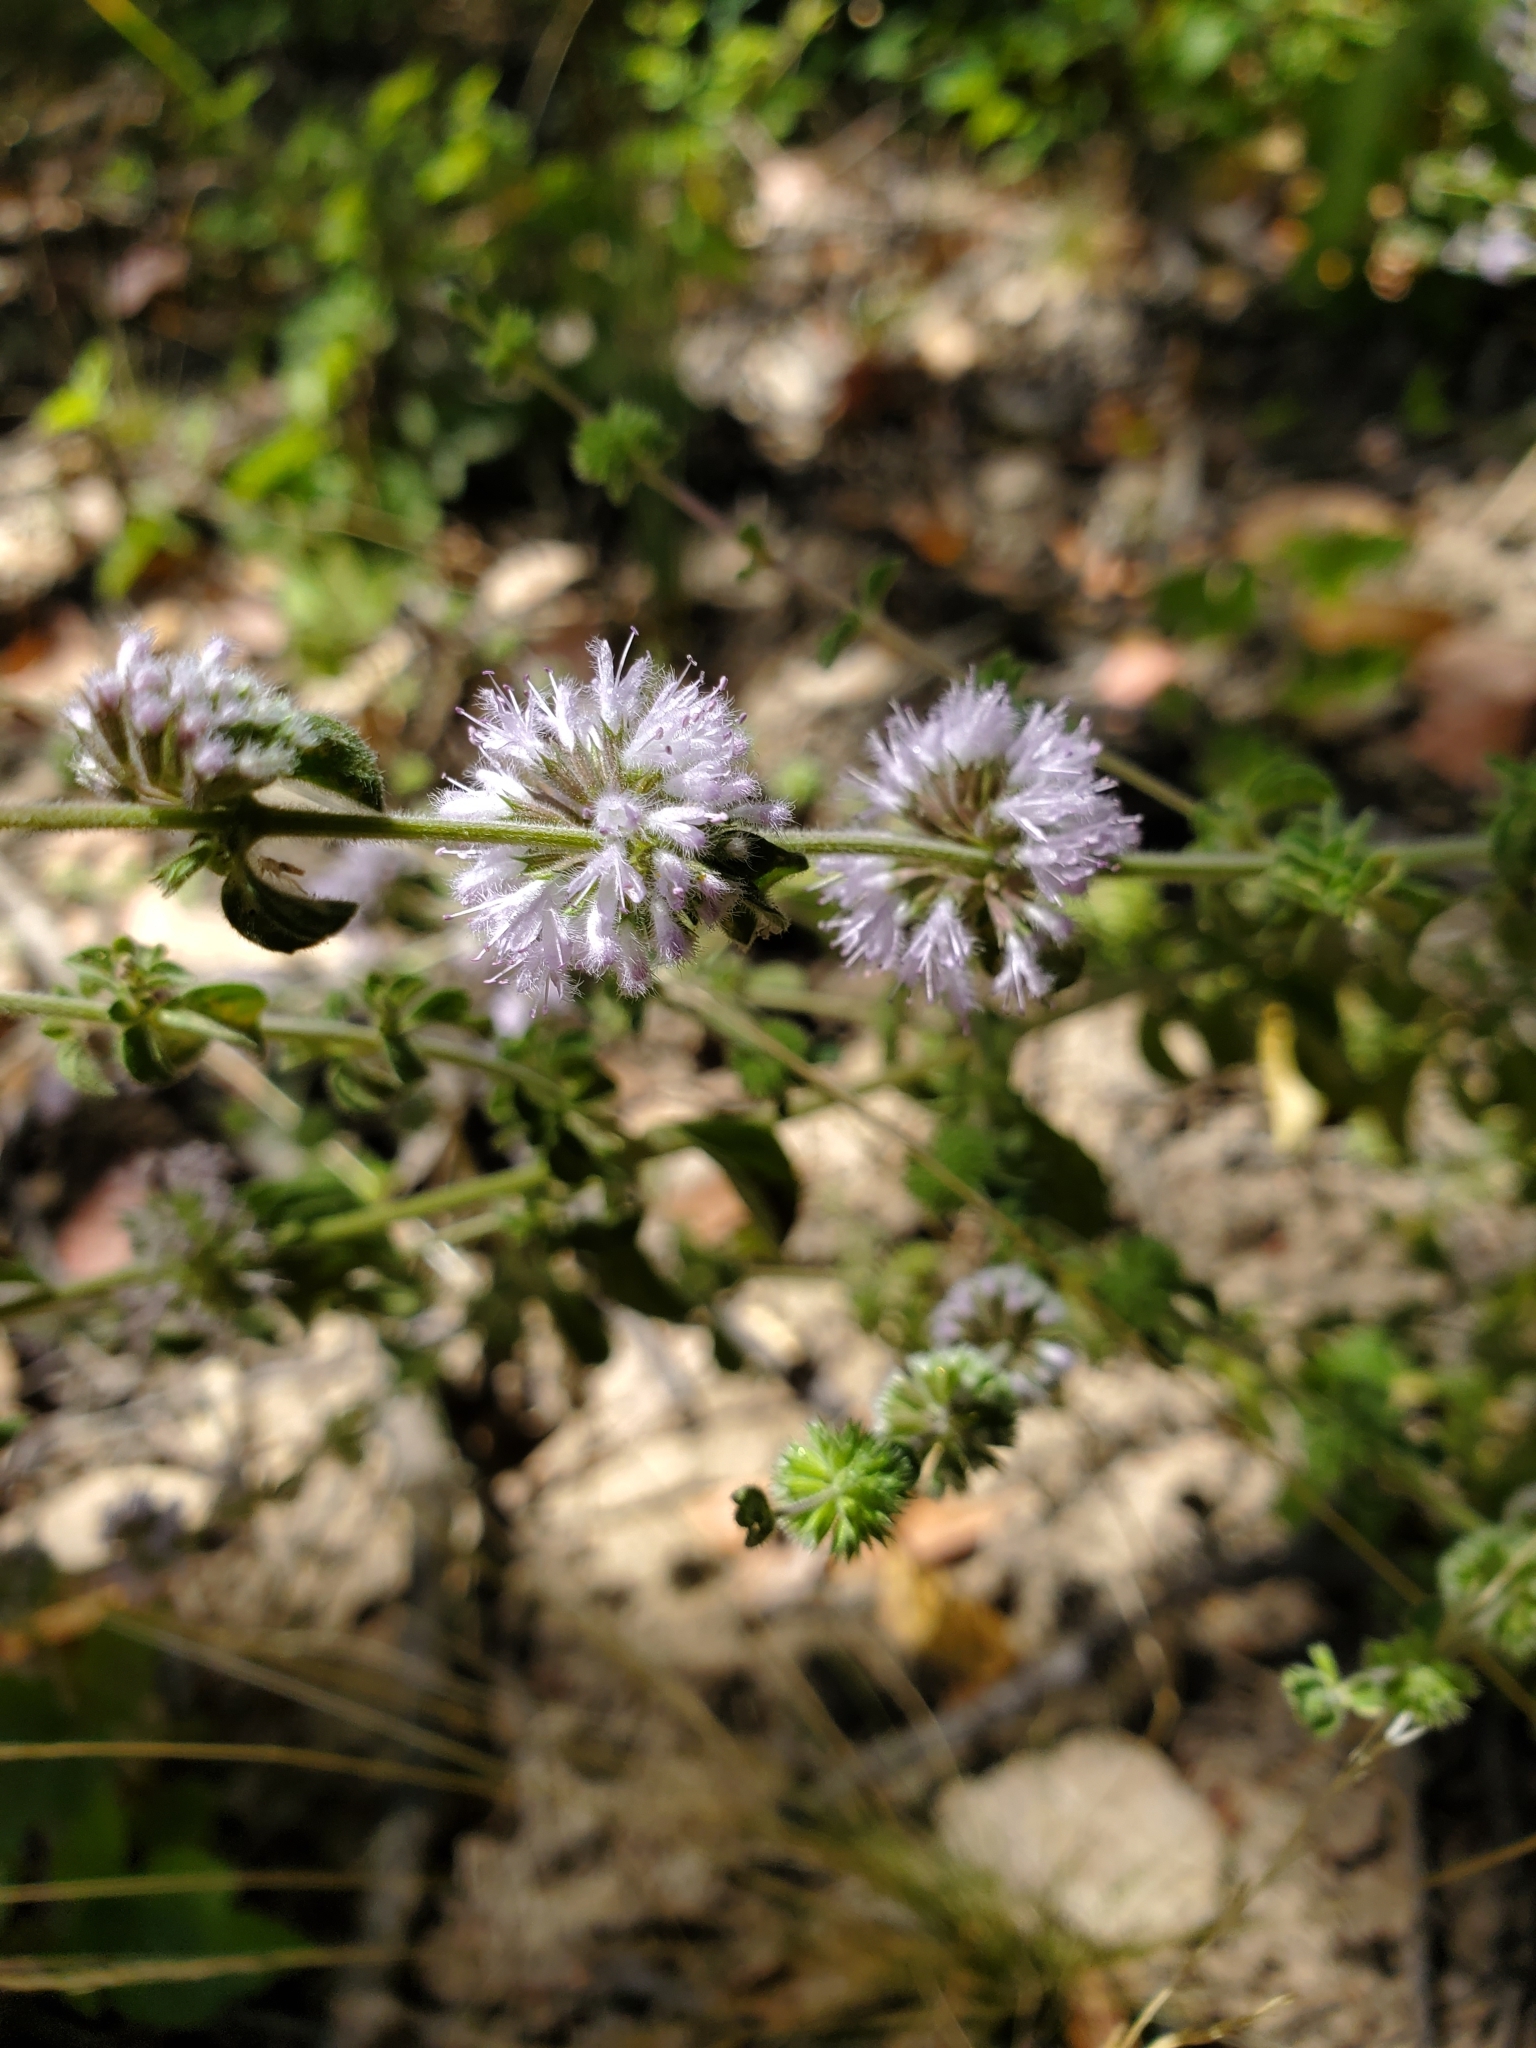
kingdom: Plantae
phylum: Tracheophyta
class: Magnoliopsida
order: Lamiales
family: Lamiaceae
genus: Mentha
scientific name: Mentha pulegium
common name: Pennyroyal
